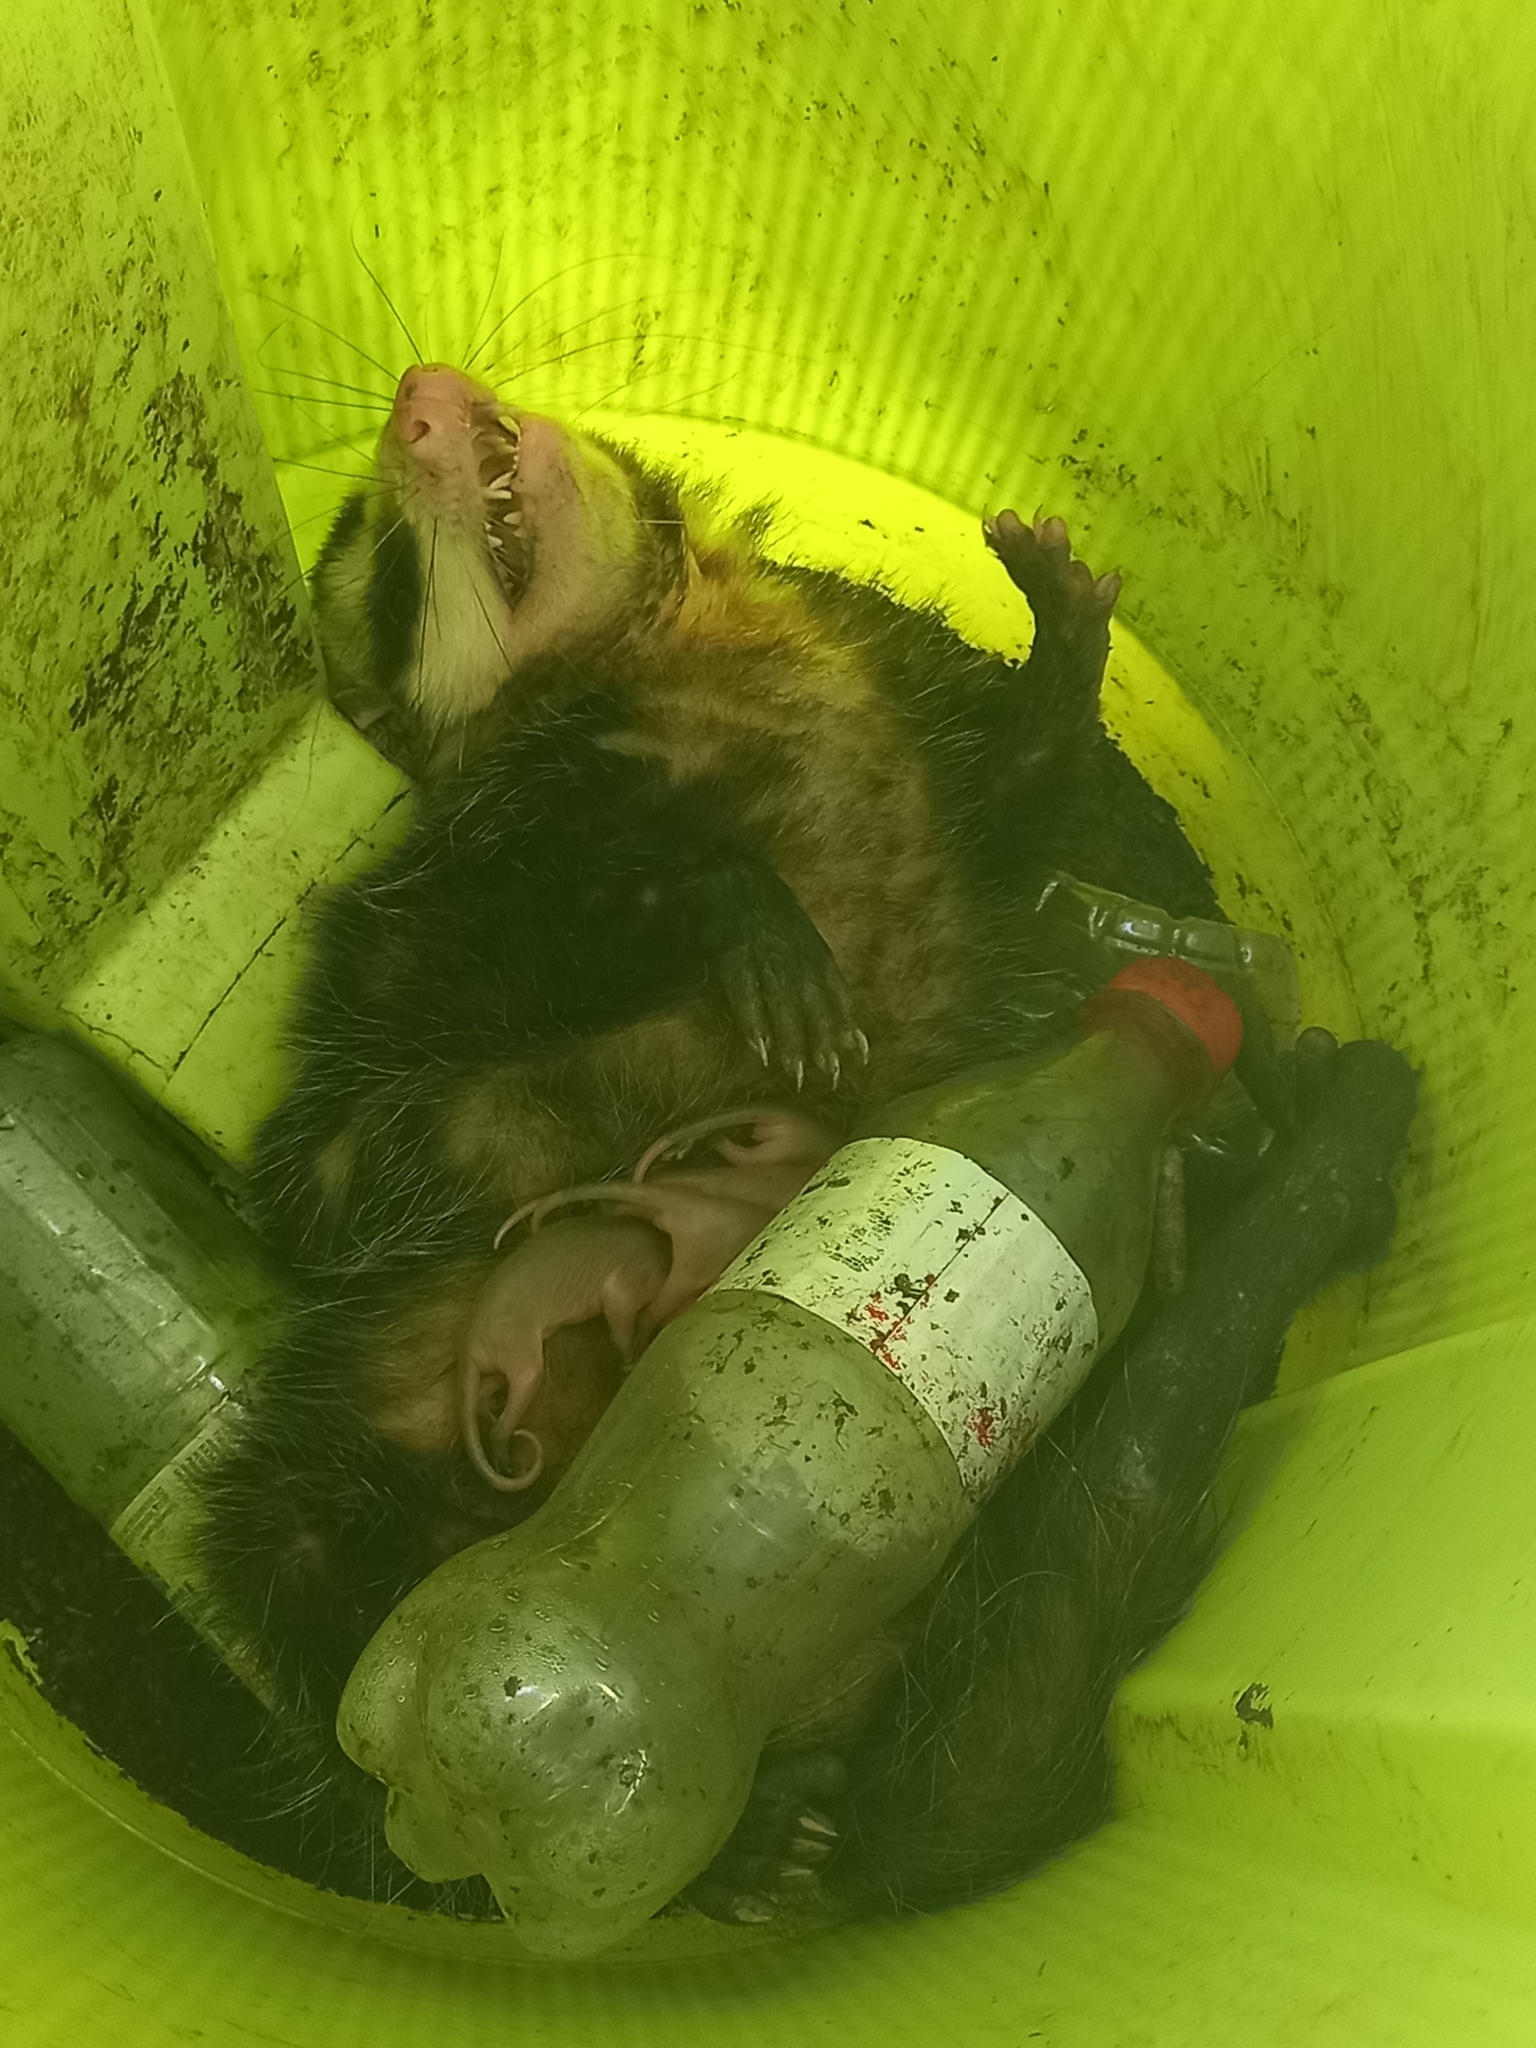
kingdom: Animalia
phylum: Chordata
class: Mammalia
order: Didelphimorphia
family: Didelphidae
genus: Didelphis
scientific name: Didelphis albiventris
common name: White-eared opossum
